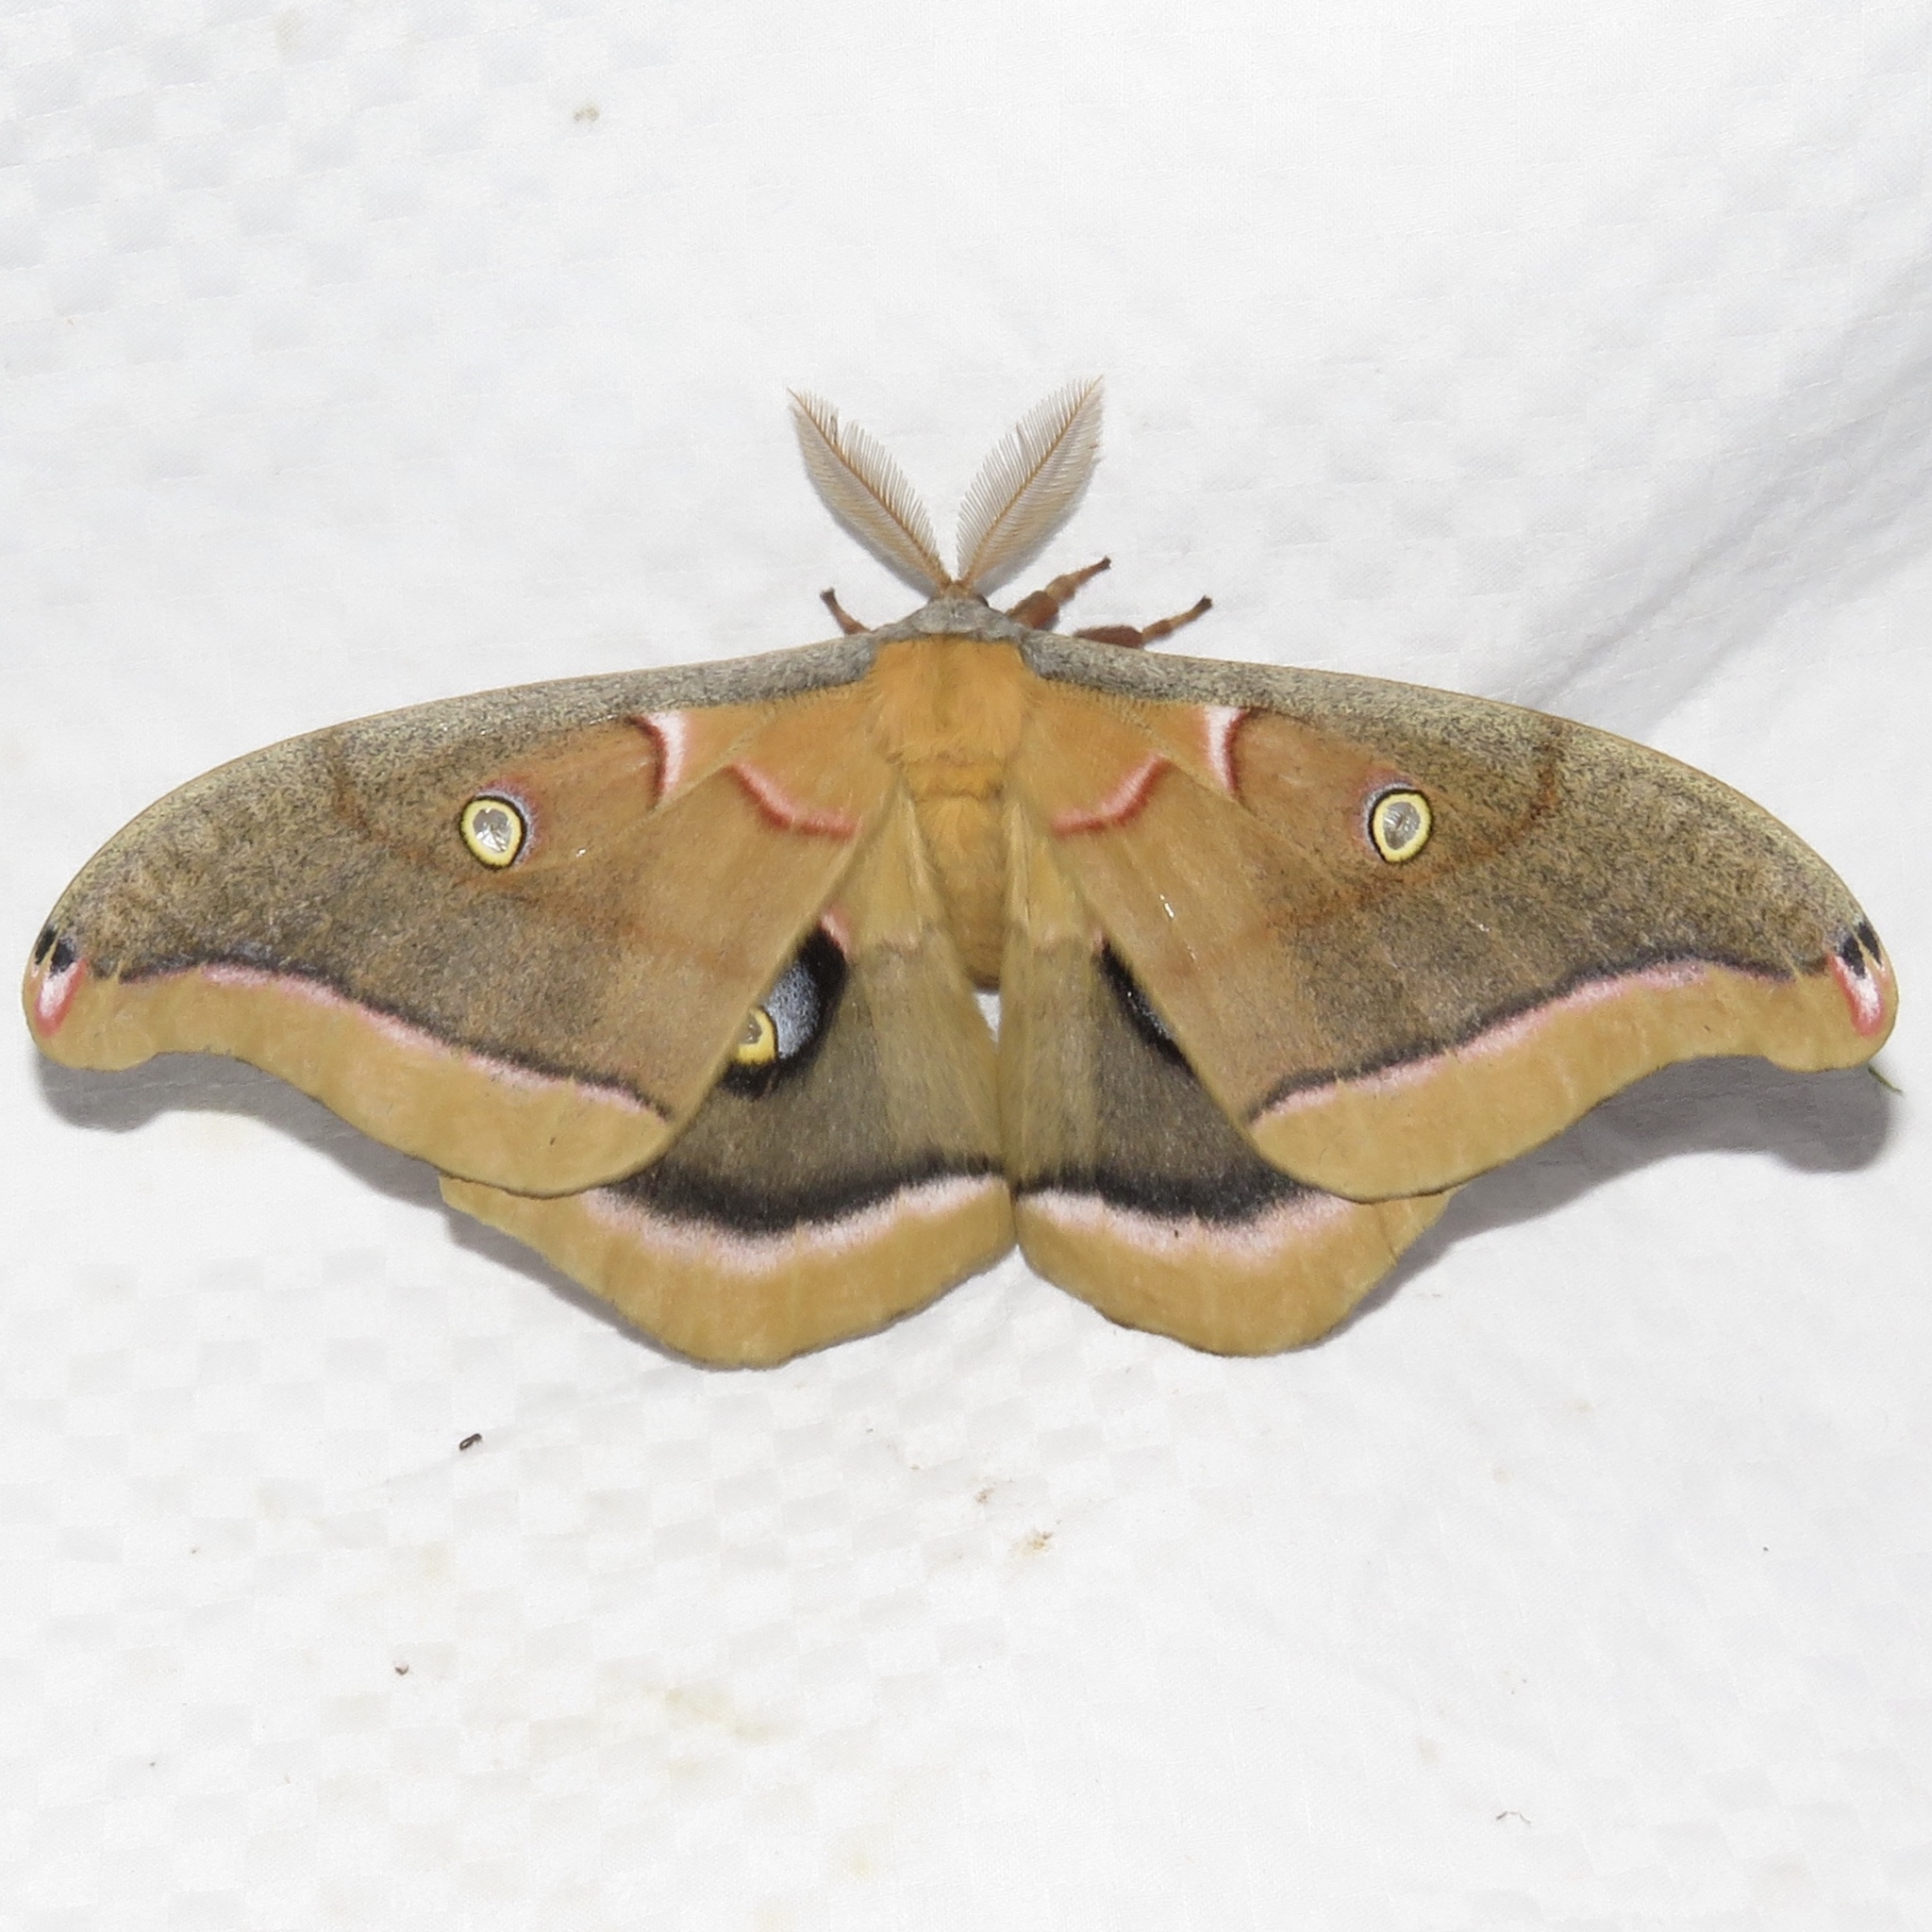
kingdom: Animalia
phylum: Arthropoda
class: Insecta
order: Lepidoptera
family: Saturniidae
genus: Antheraea
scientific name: Antheraea polyphemus
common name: Polyphemus moth
